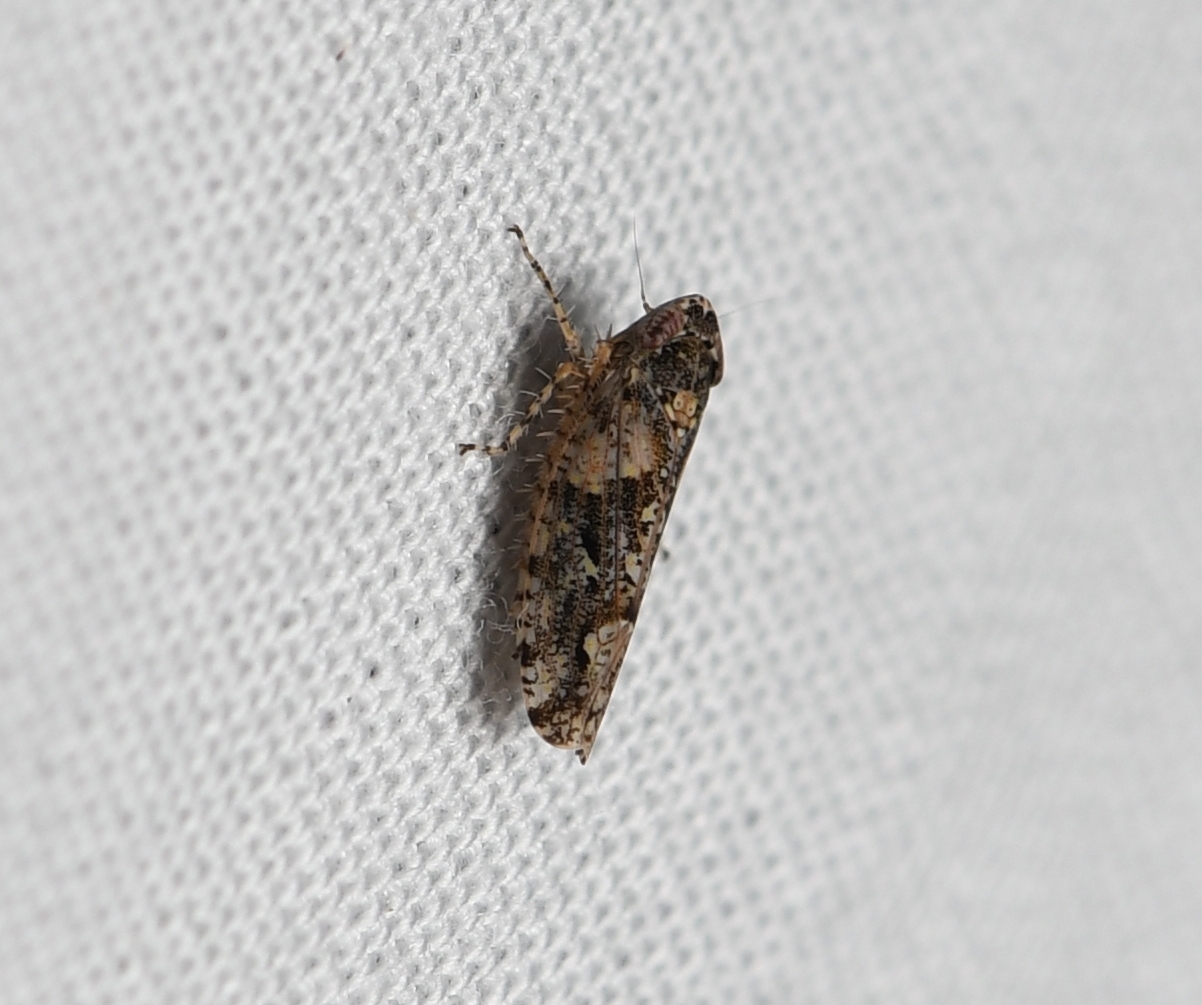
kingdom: Animalia
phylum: Arthropoda
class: Insecta
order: Hemiptera
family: Cicadellidae
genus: Dixianus
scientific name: Dixianus utahnus
